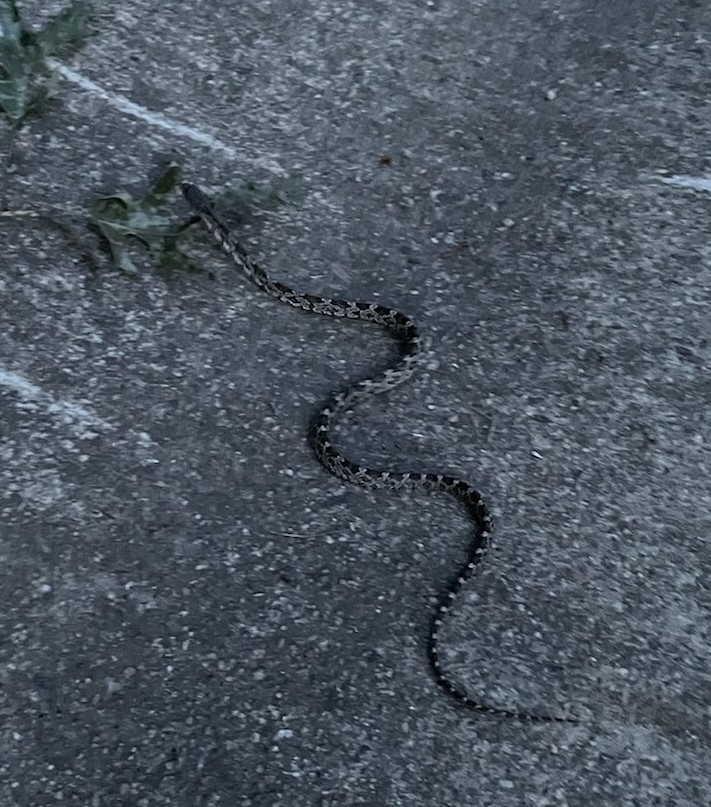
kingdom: Animalia
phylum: Chordata
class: Squamata
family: Colubridae
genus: Pantherophis
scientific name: Pantherophis alleghaniensis
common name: Eastern rat snake
